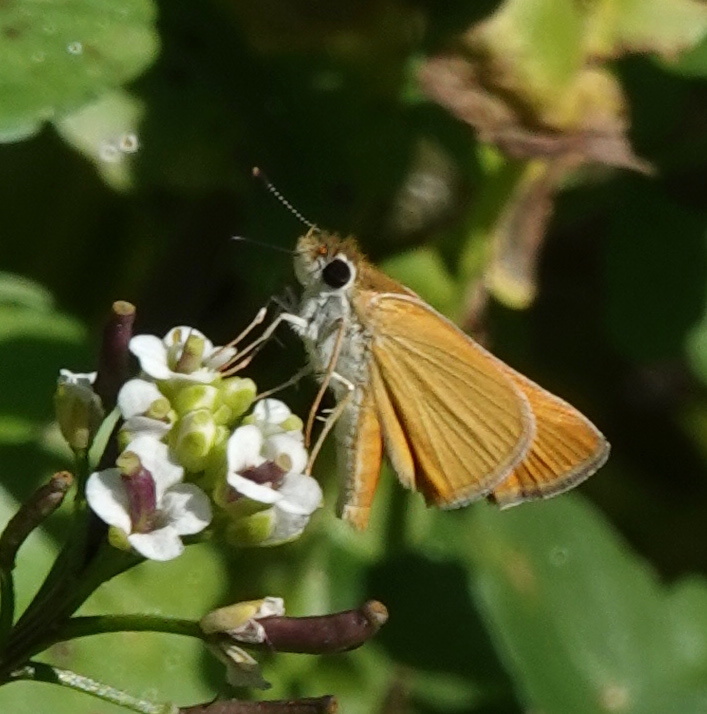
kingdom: Animalia
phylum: Arthropoda
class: Insecta
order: Lepidoptera
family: Hesperiidae
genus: Copaeodes
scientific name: Copaeodes aurantiaca
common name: Orange skipperling
